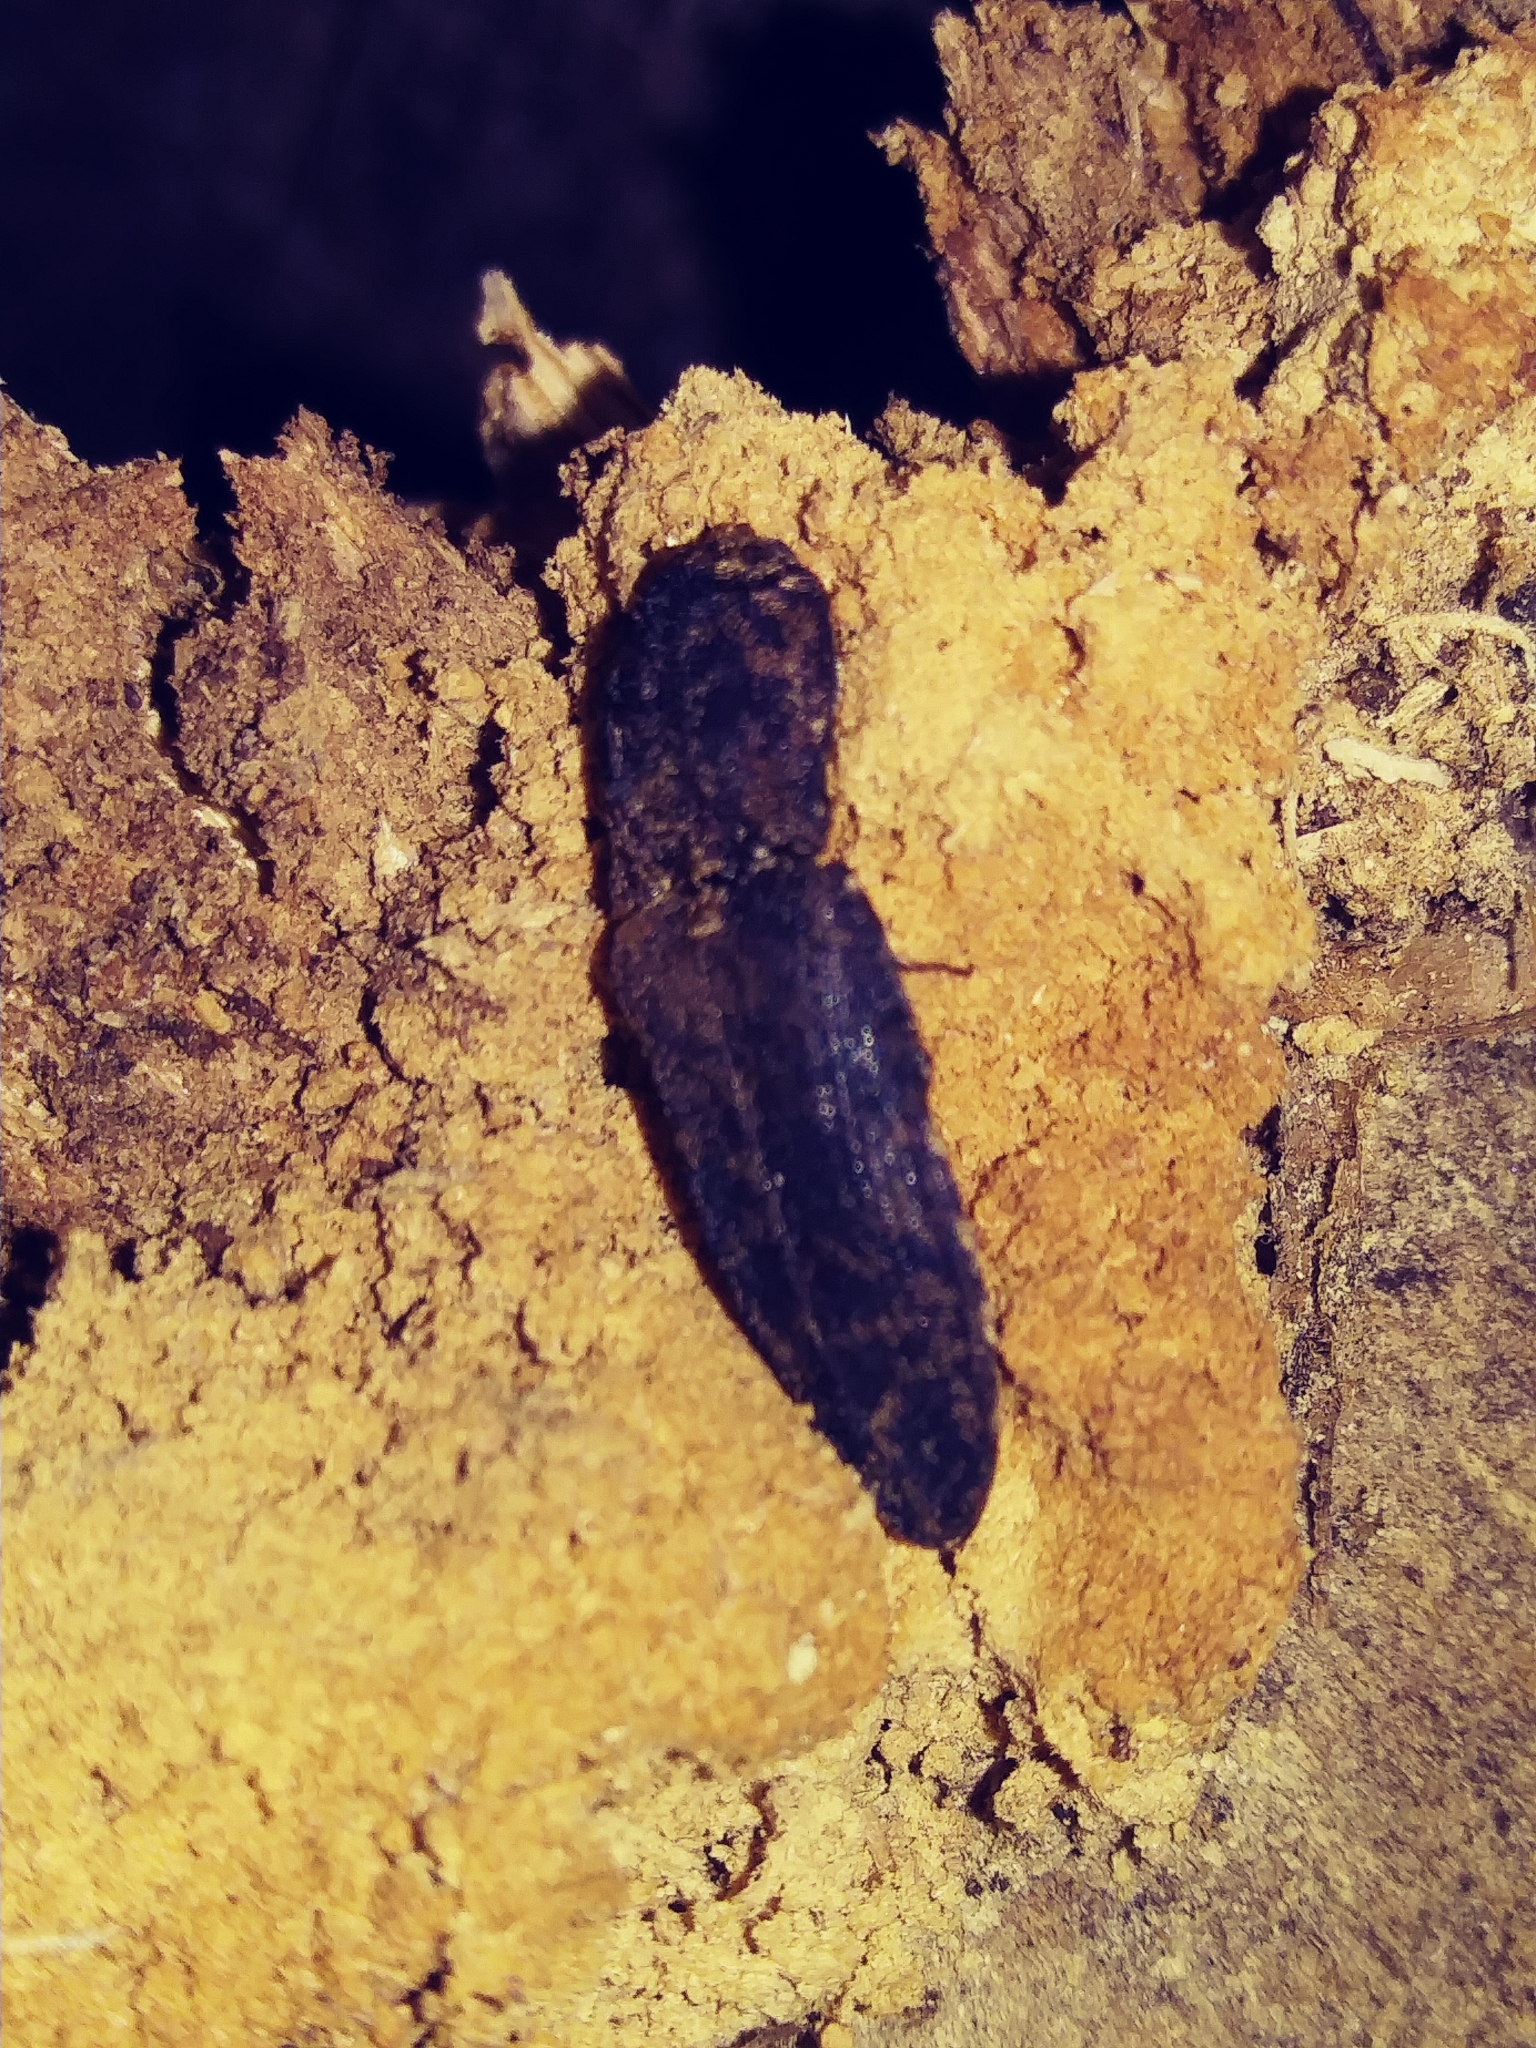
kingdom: Animalia
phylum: Arthropoda
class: Insecta
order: Coleoptera
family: Elateridae
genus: Lacon
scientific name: Lacon marmoratus
